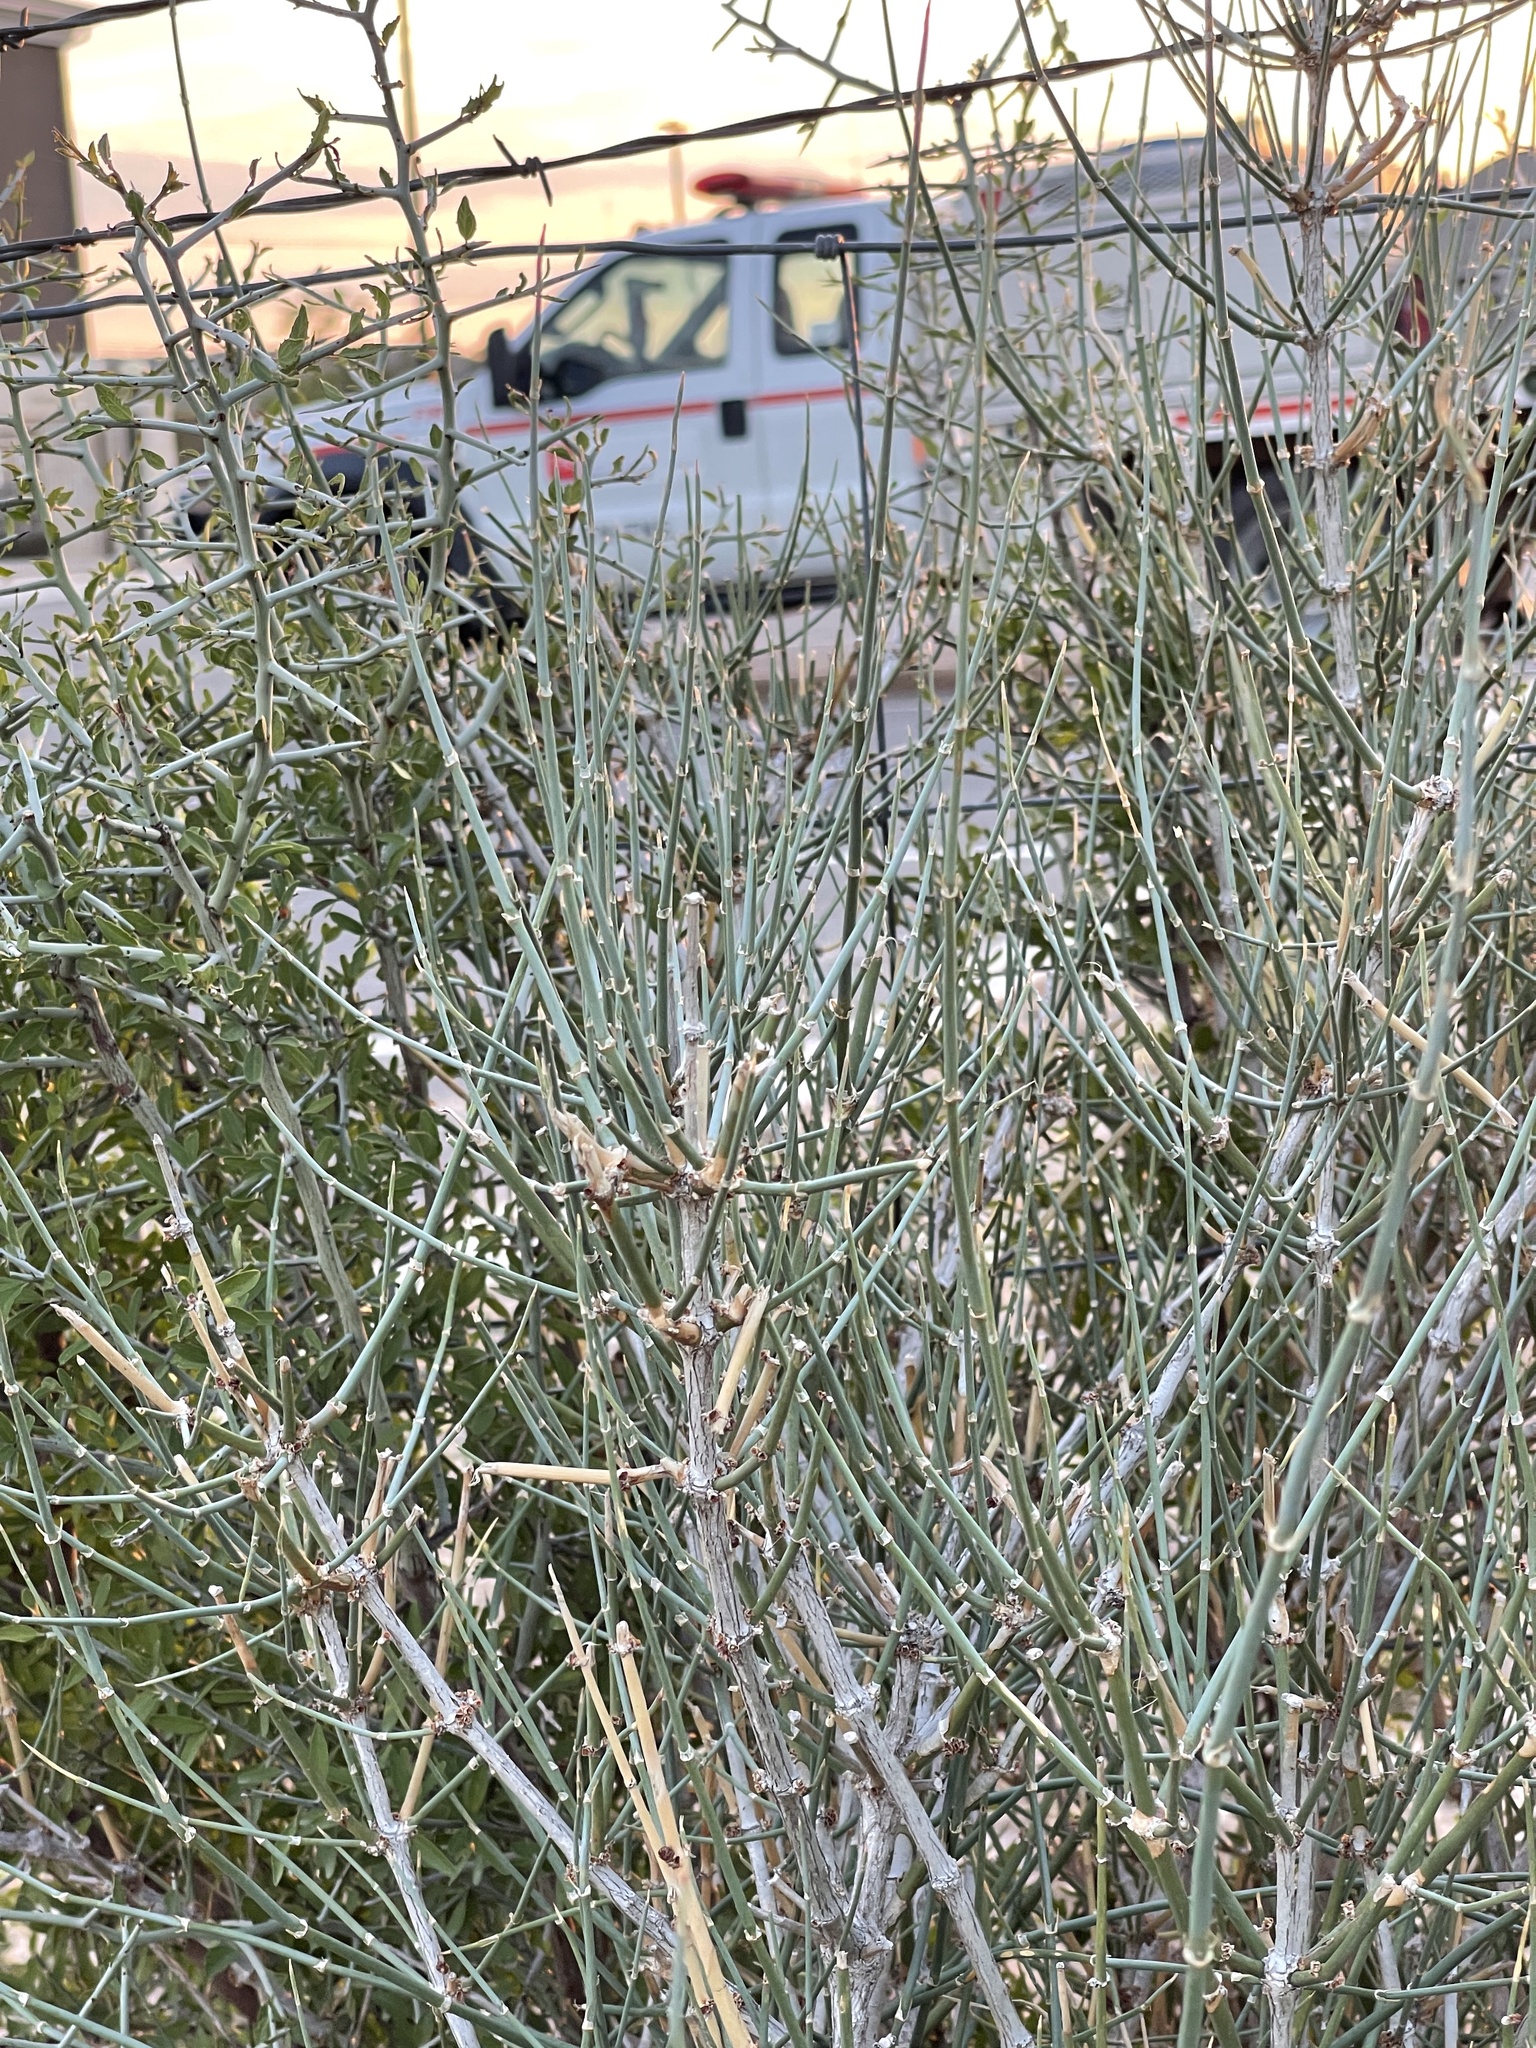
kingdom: Plantae
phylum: Tracheophyta
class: Gnetopsida
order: Ephedrales
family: Ephedraceae
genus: Ephedra
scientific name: Ephedra antisyphilitica
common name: Clipweed
